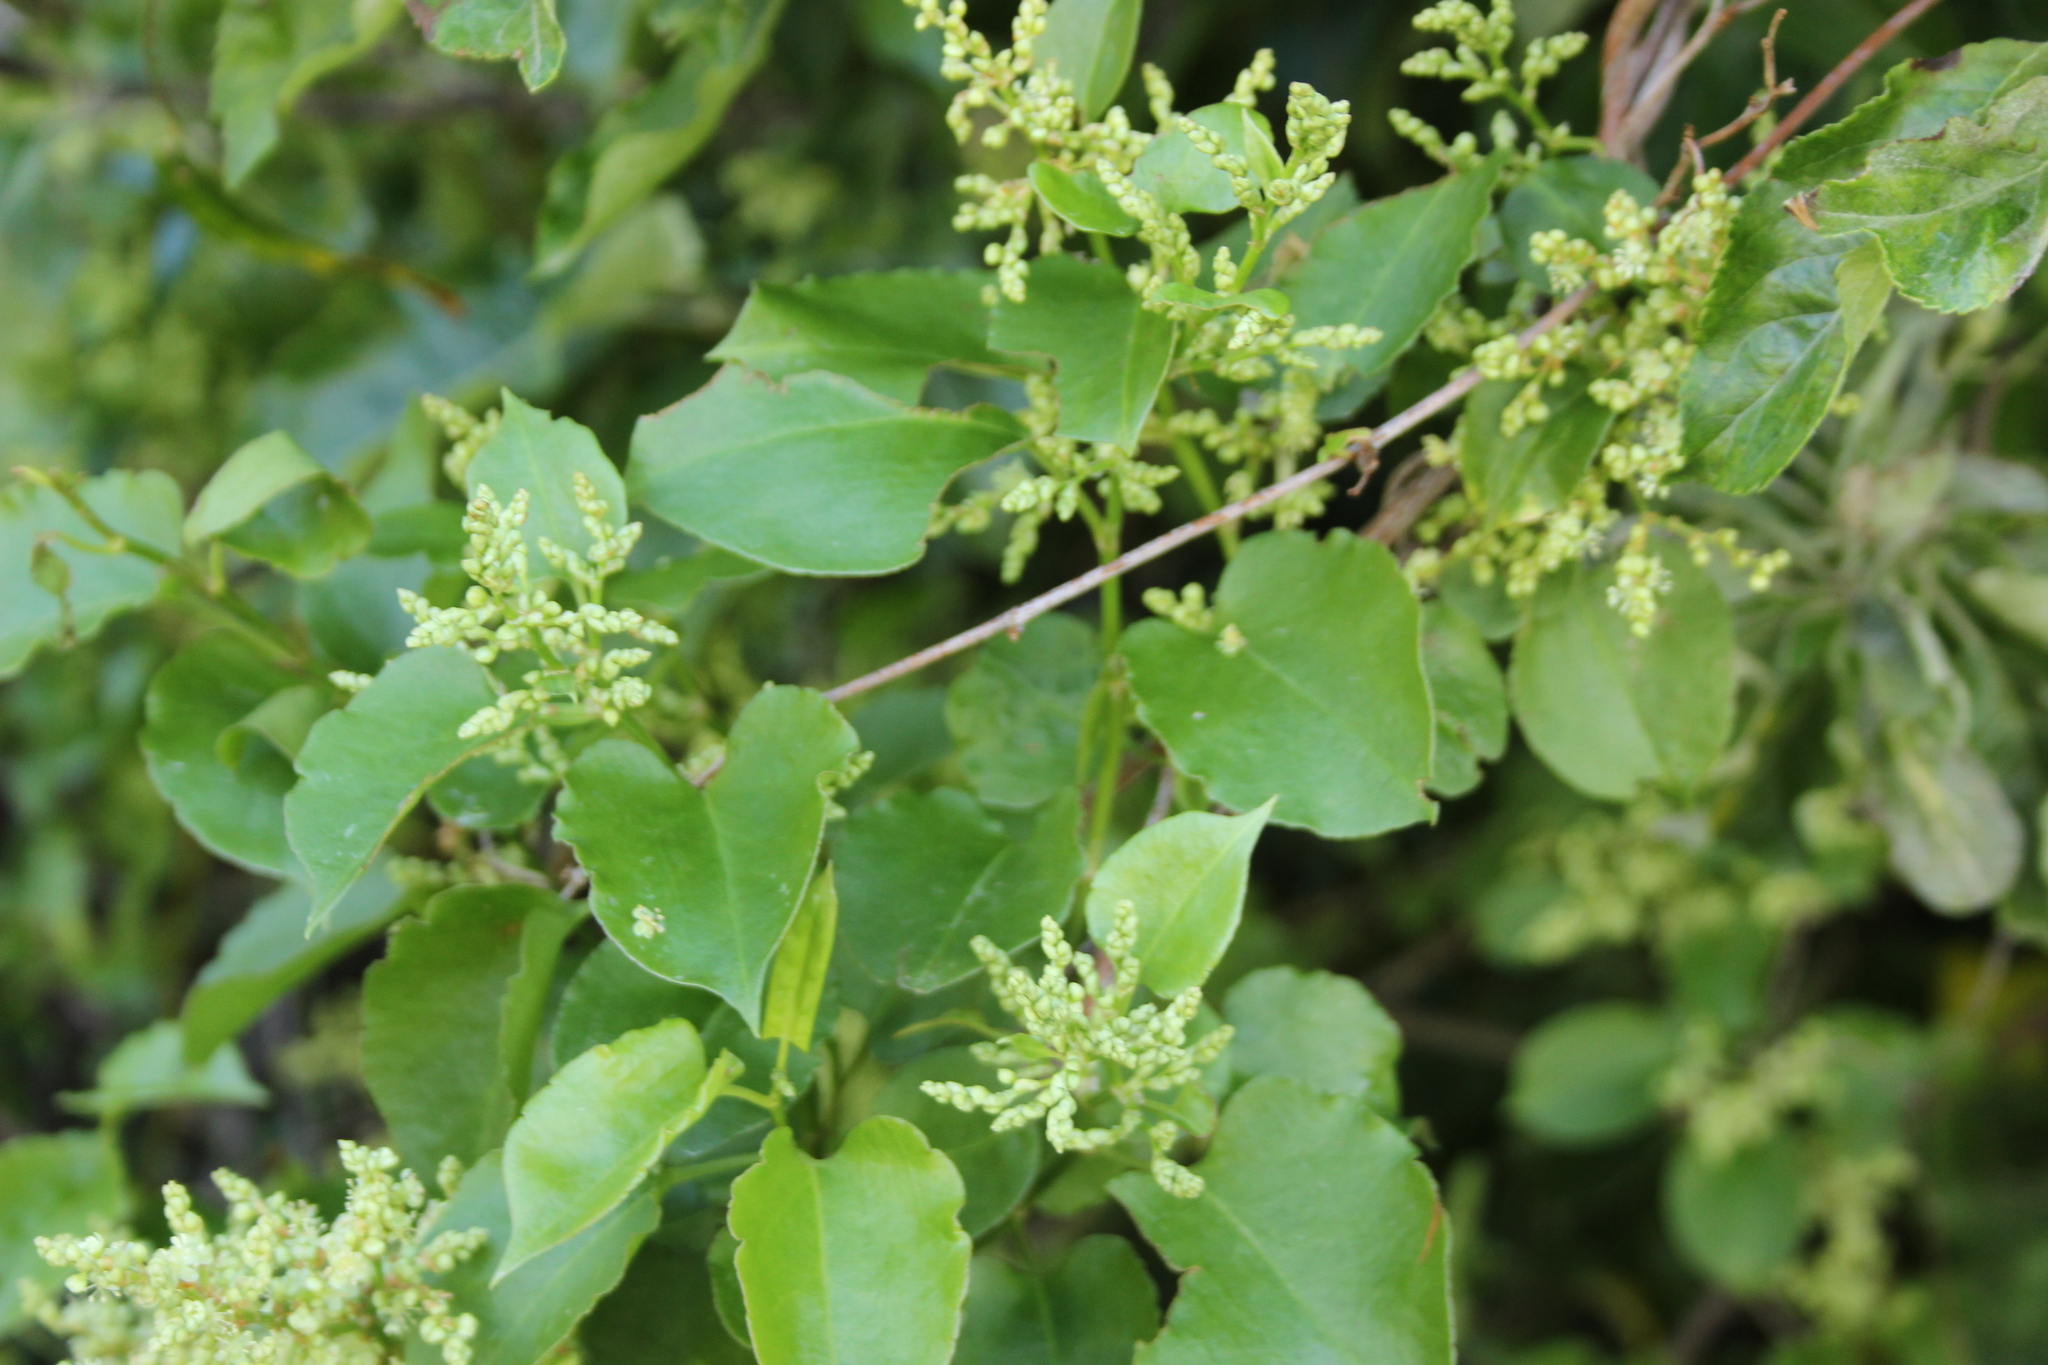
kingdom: Plantae
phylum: Tracheophyta
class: Magnoliopsida
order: Caryophyllales
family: Polygonaceae
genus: Muehlenbeckia
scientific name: Muehlenbeckia australis
